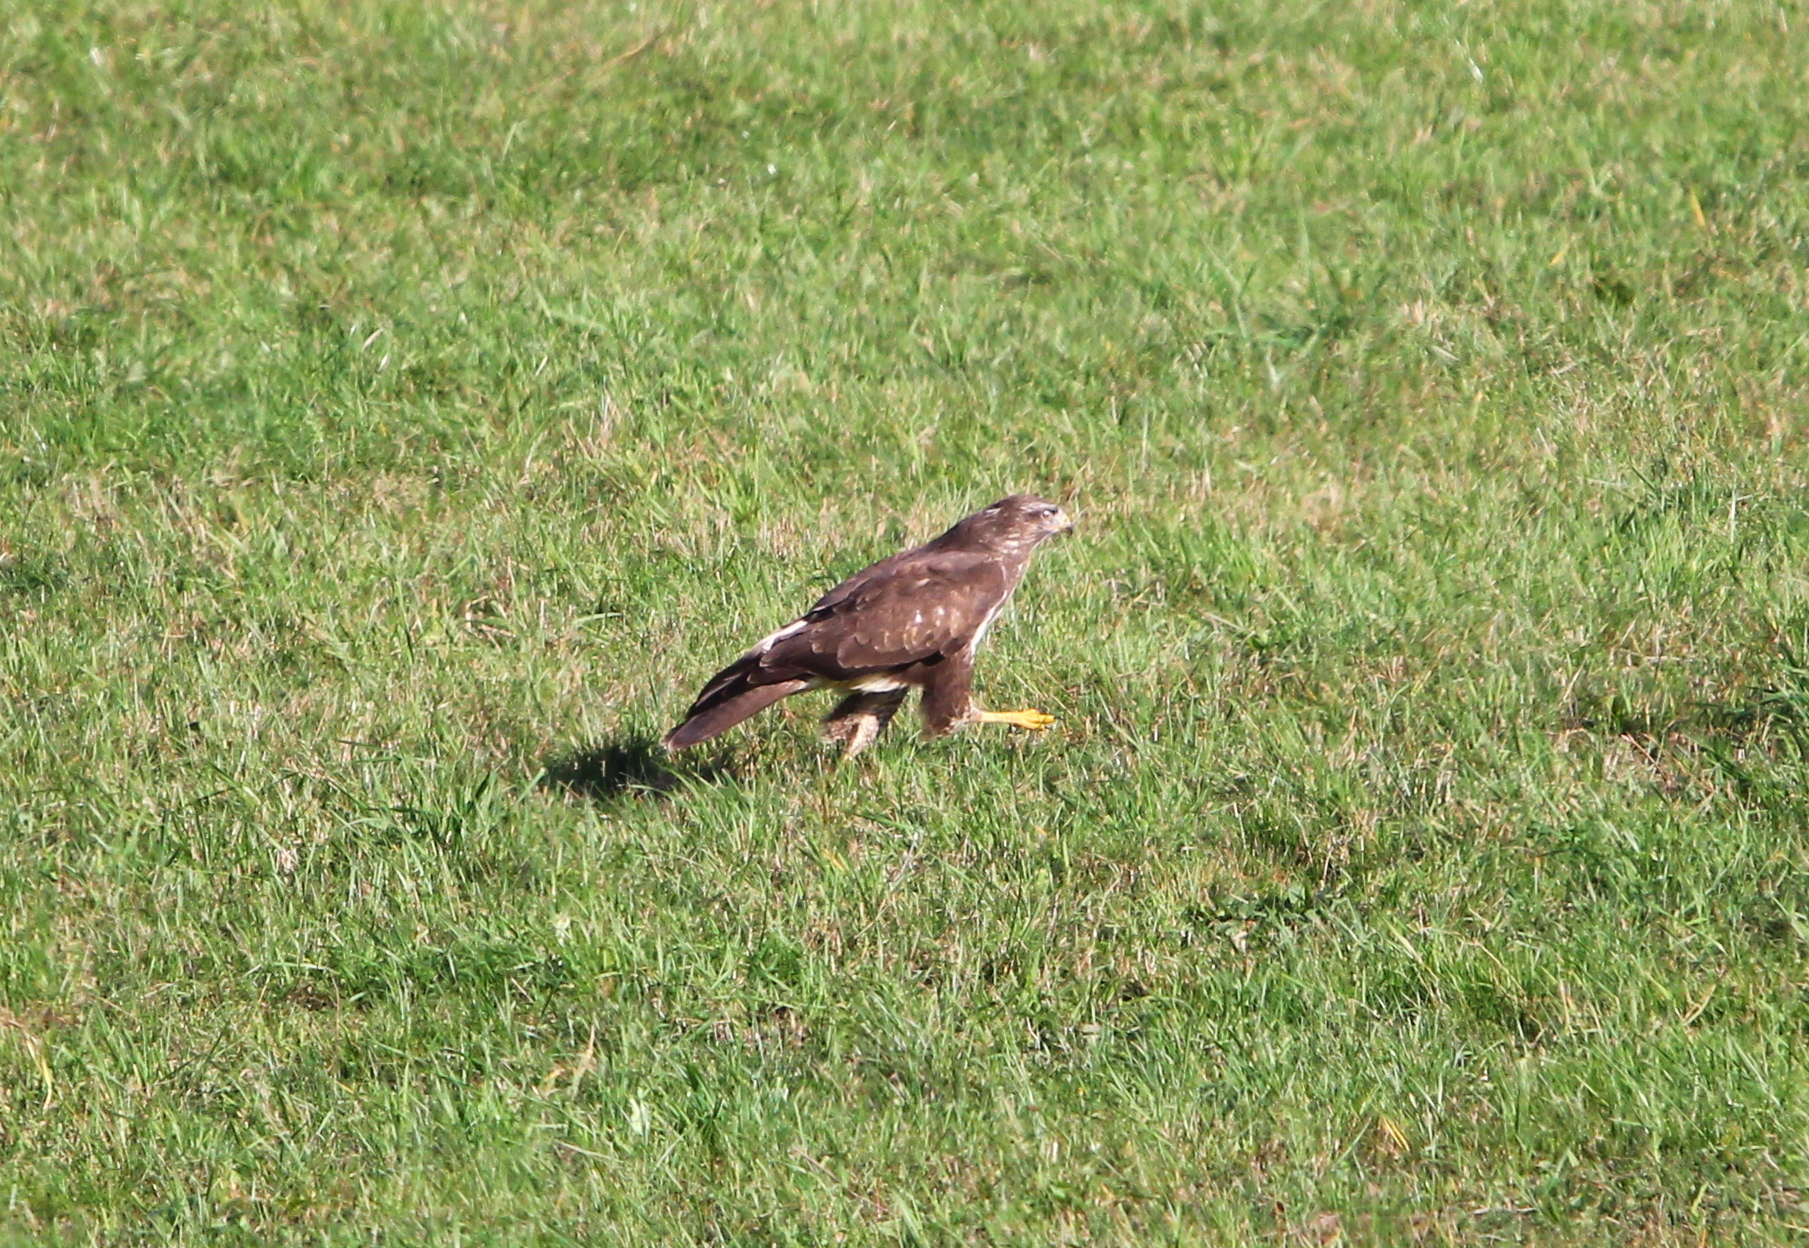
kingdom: Animalia
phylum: Chordata
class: Aves
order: Accipitriformes
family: Accipitridae
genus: Buteo
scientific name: Buteo buteo
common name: Common buzzard
